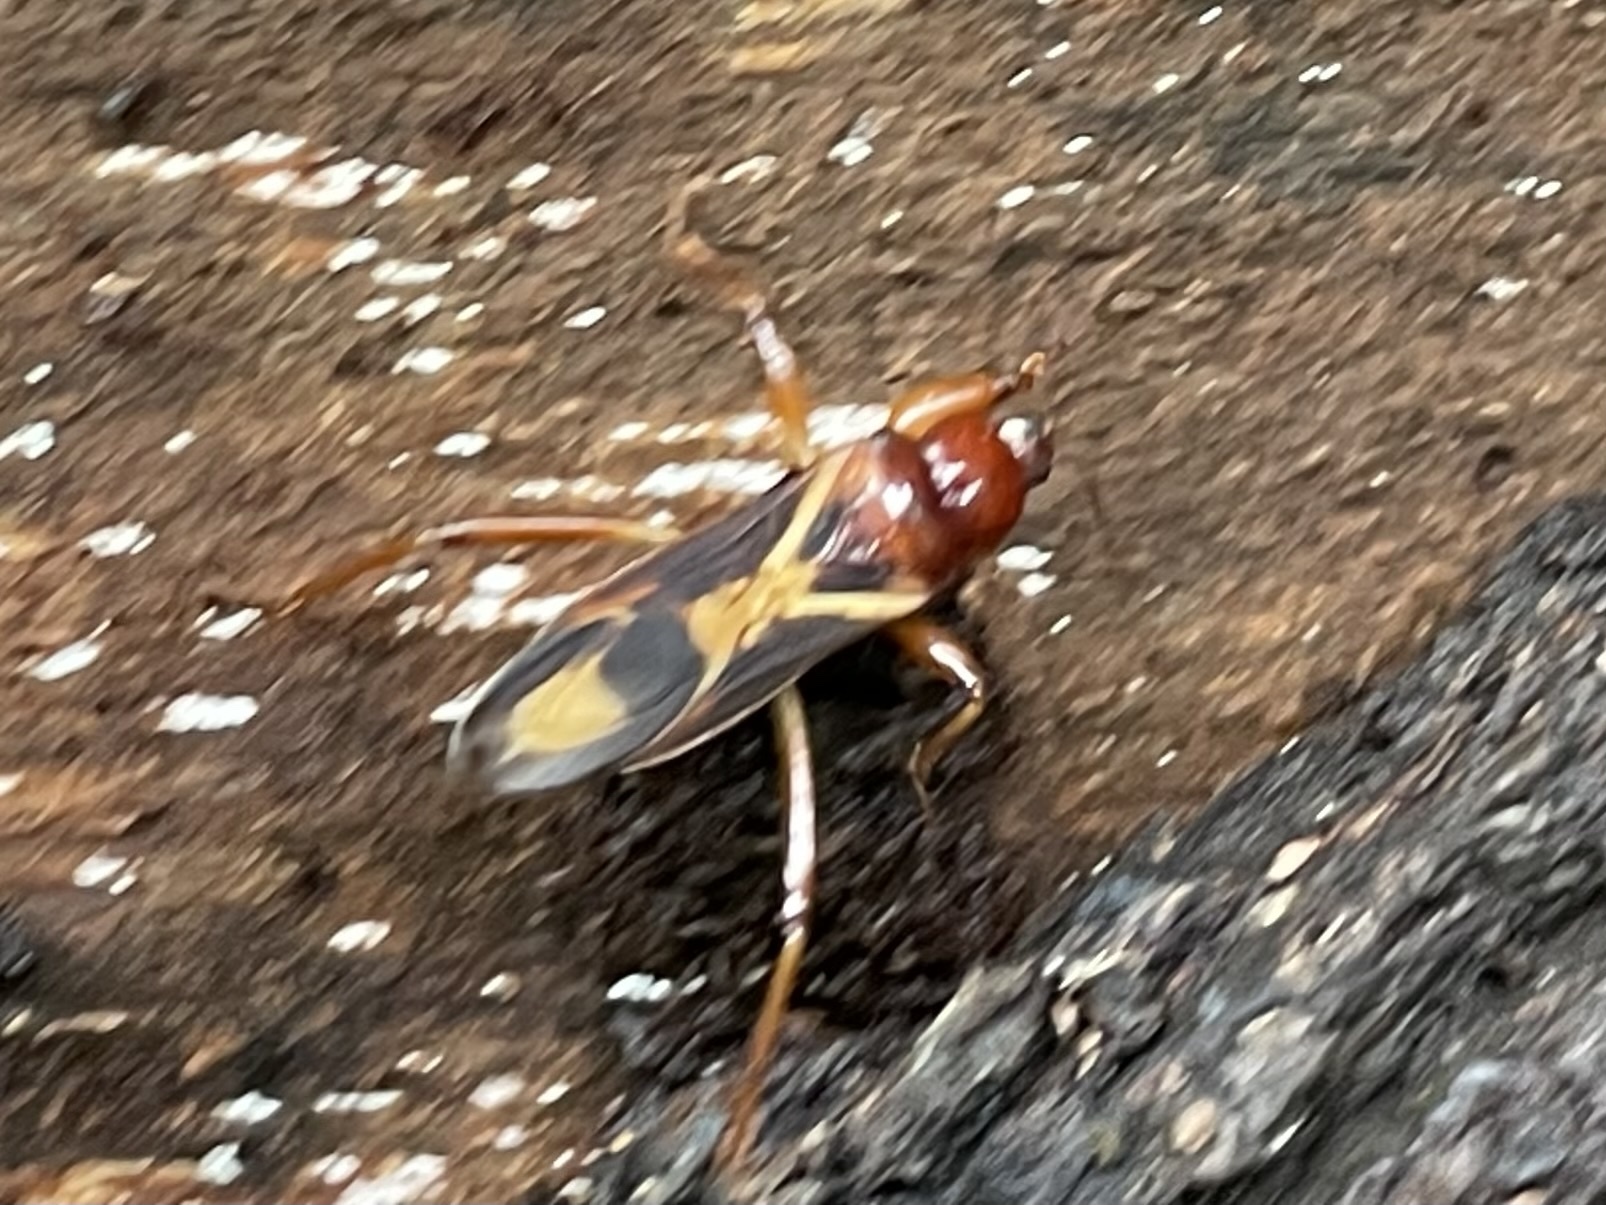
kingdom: Animalia
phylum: Arthropoda
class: Insecta
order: Hemiptera
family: Reduviidae
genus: Tydides
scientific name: Tydides rufus
